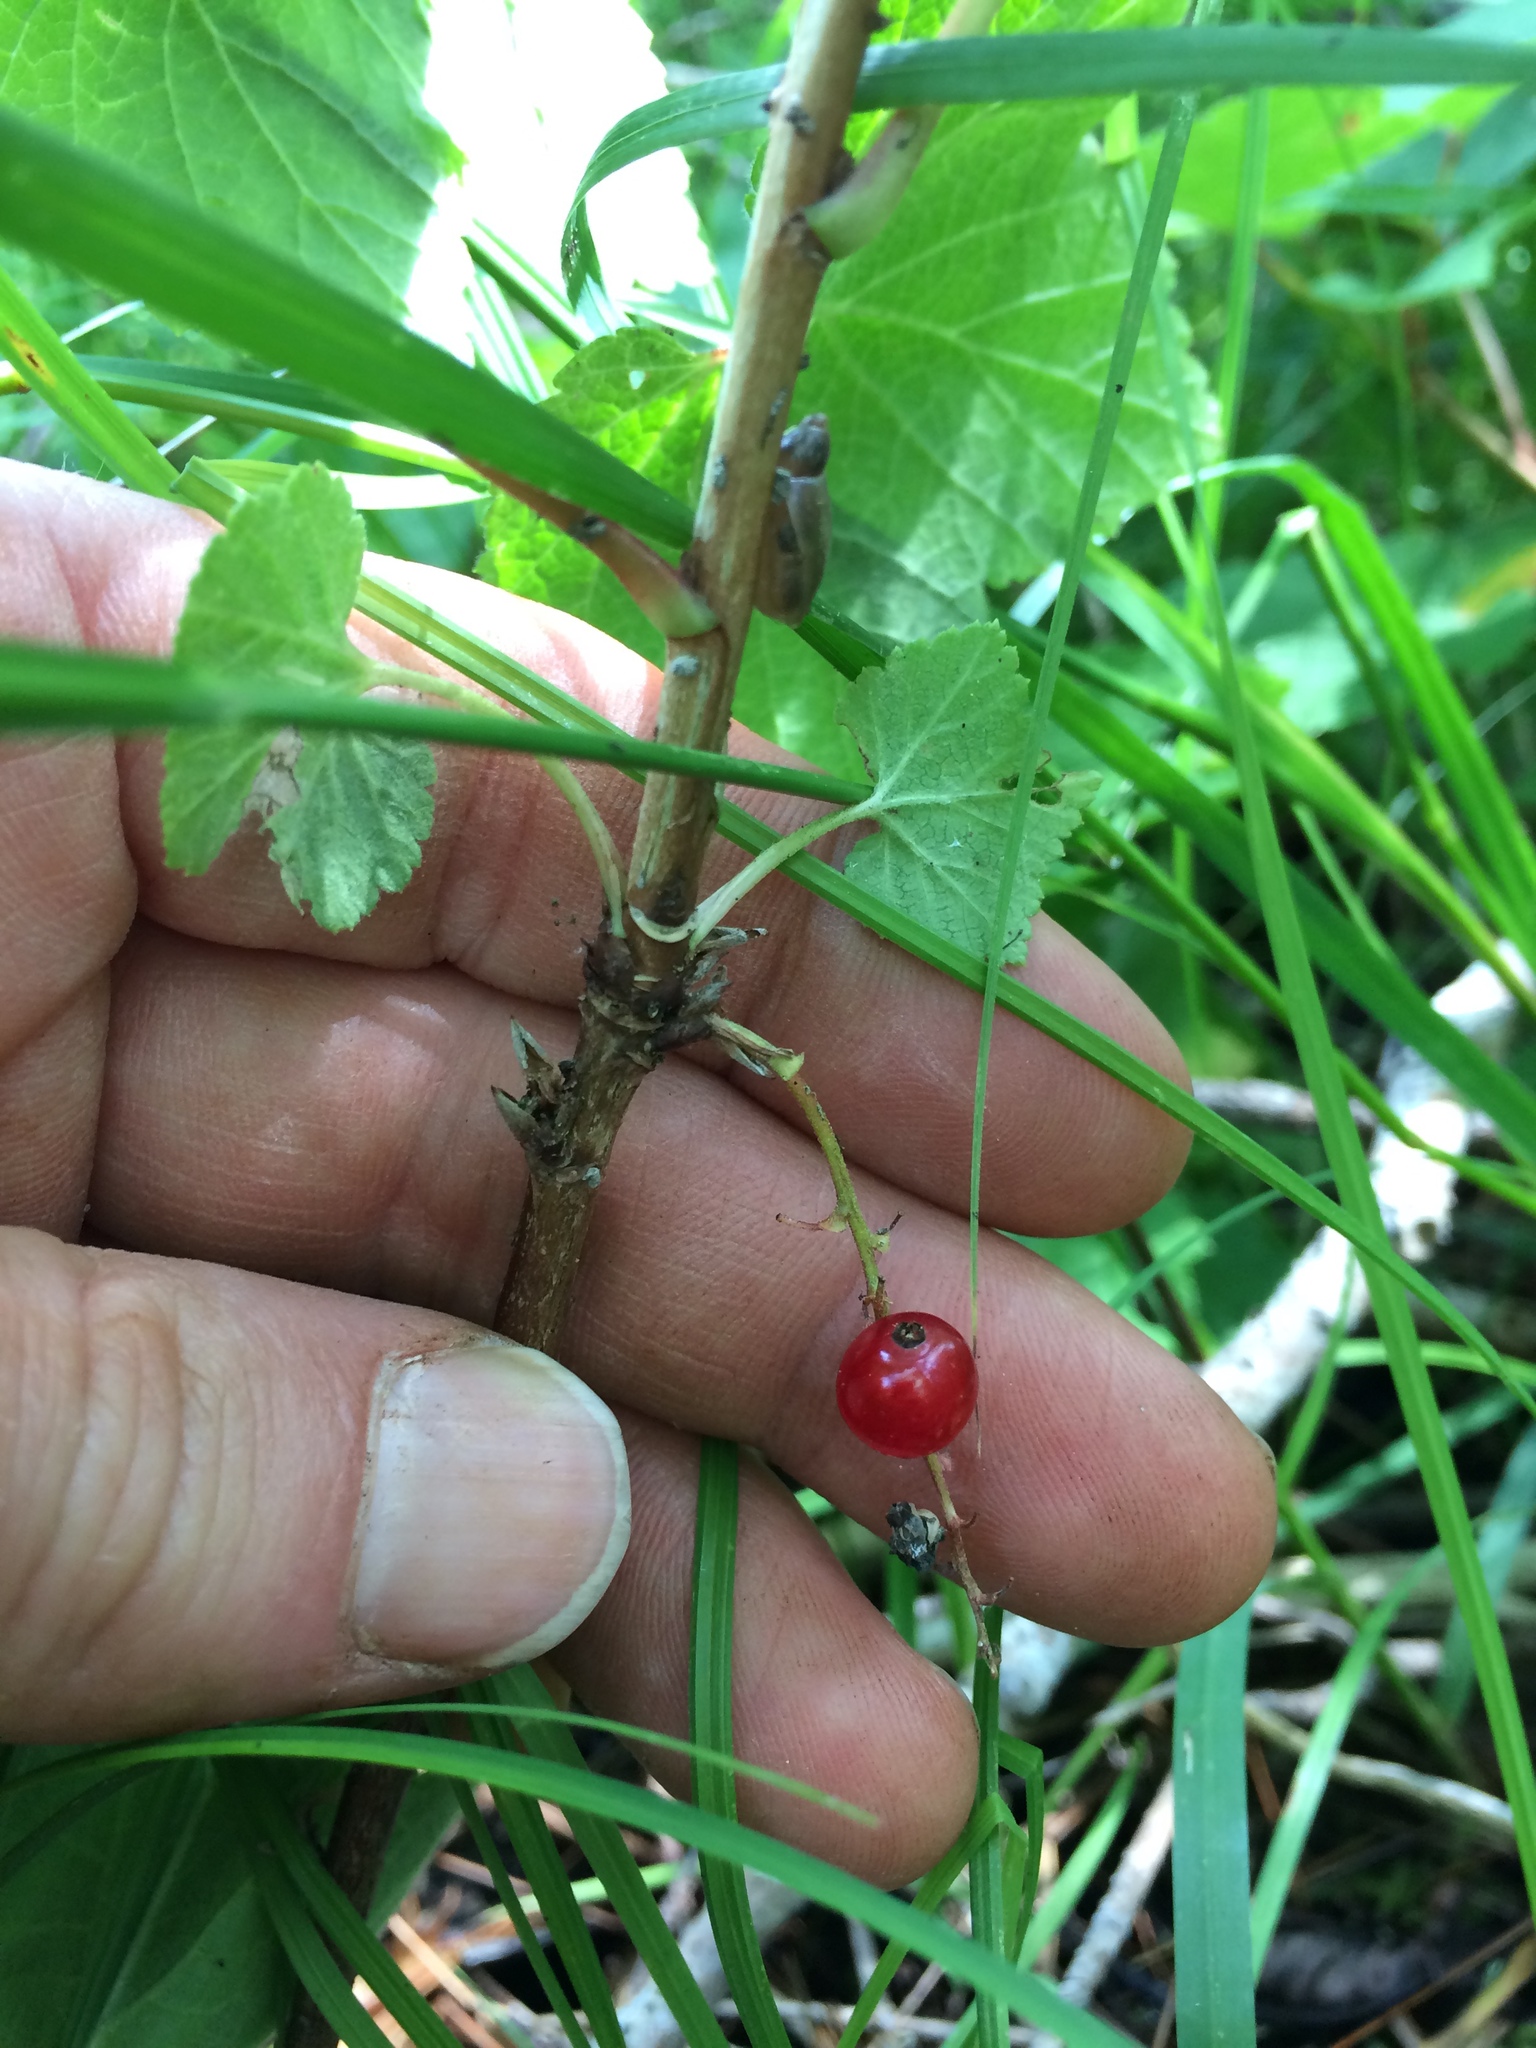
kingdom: Plantae
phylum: Tracheophyta
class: Magnoliopsida
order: Saxifragales
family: Grossulariaceae
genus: Ribes
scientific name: Ribes triste
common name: Swamp red currant
